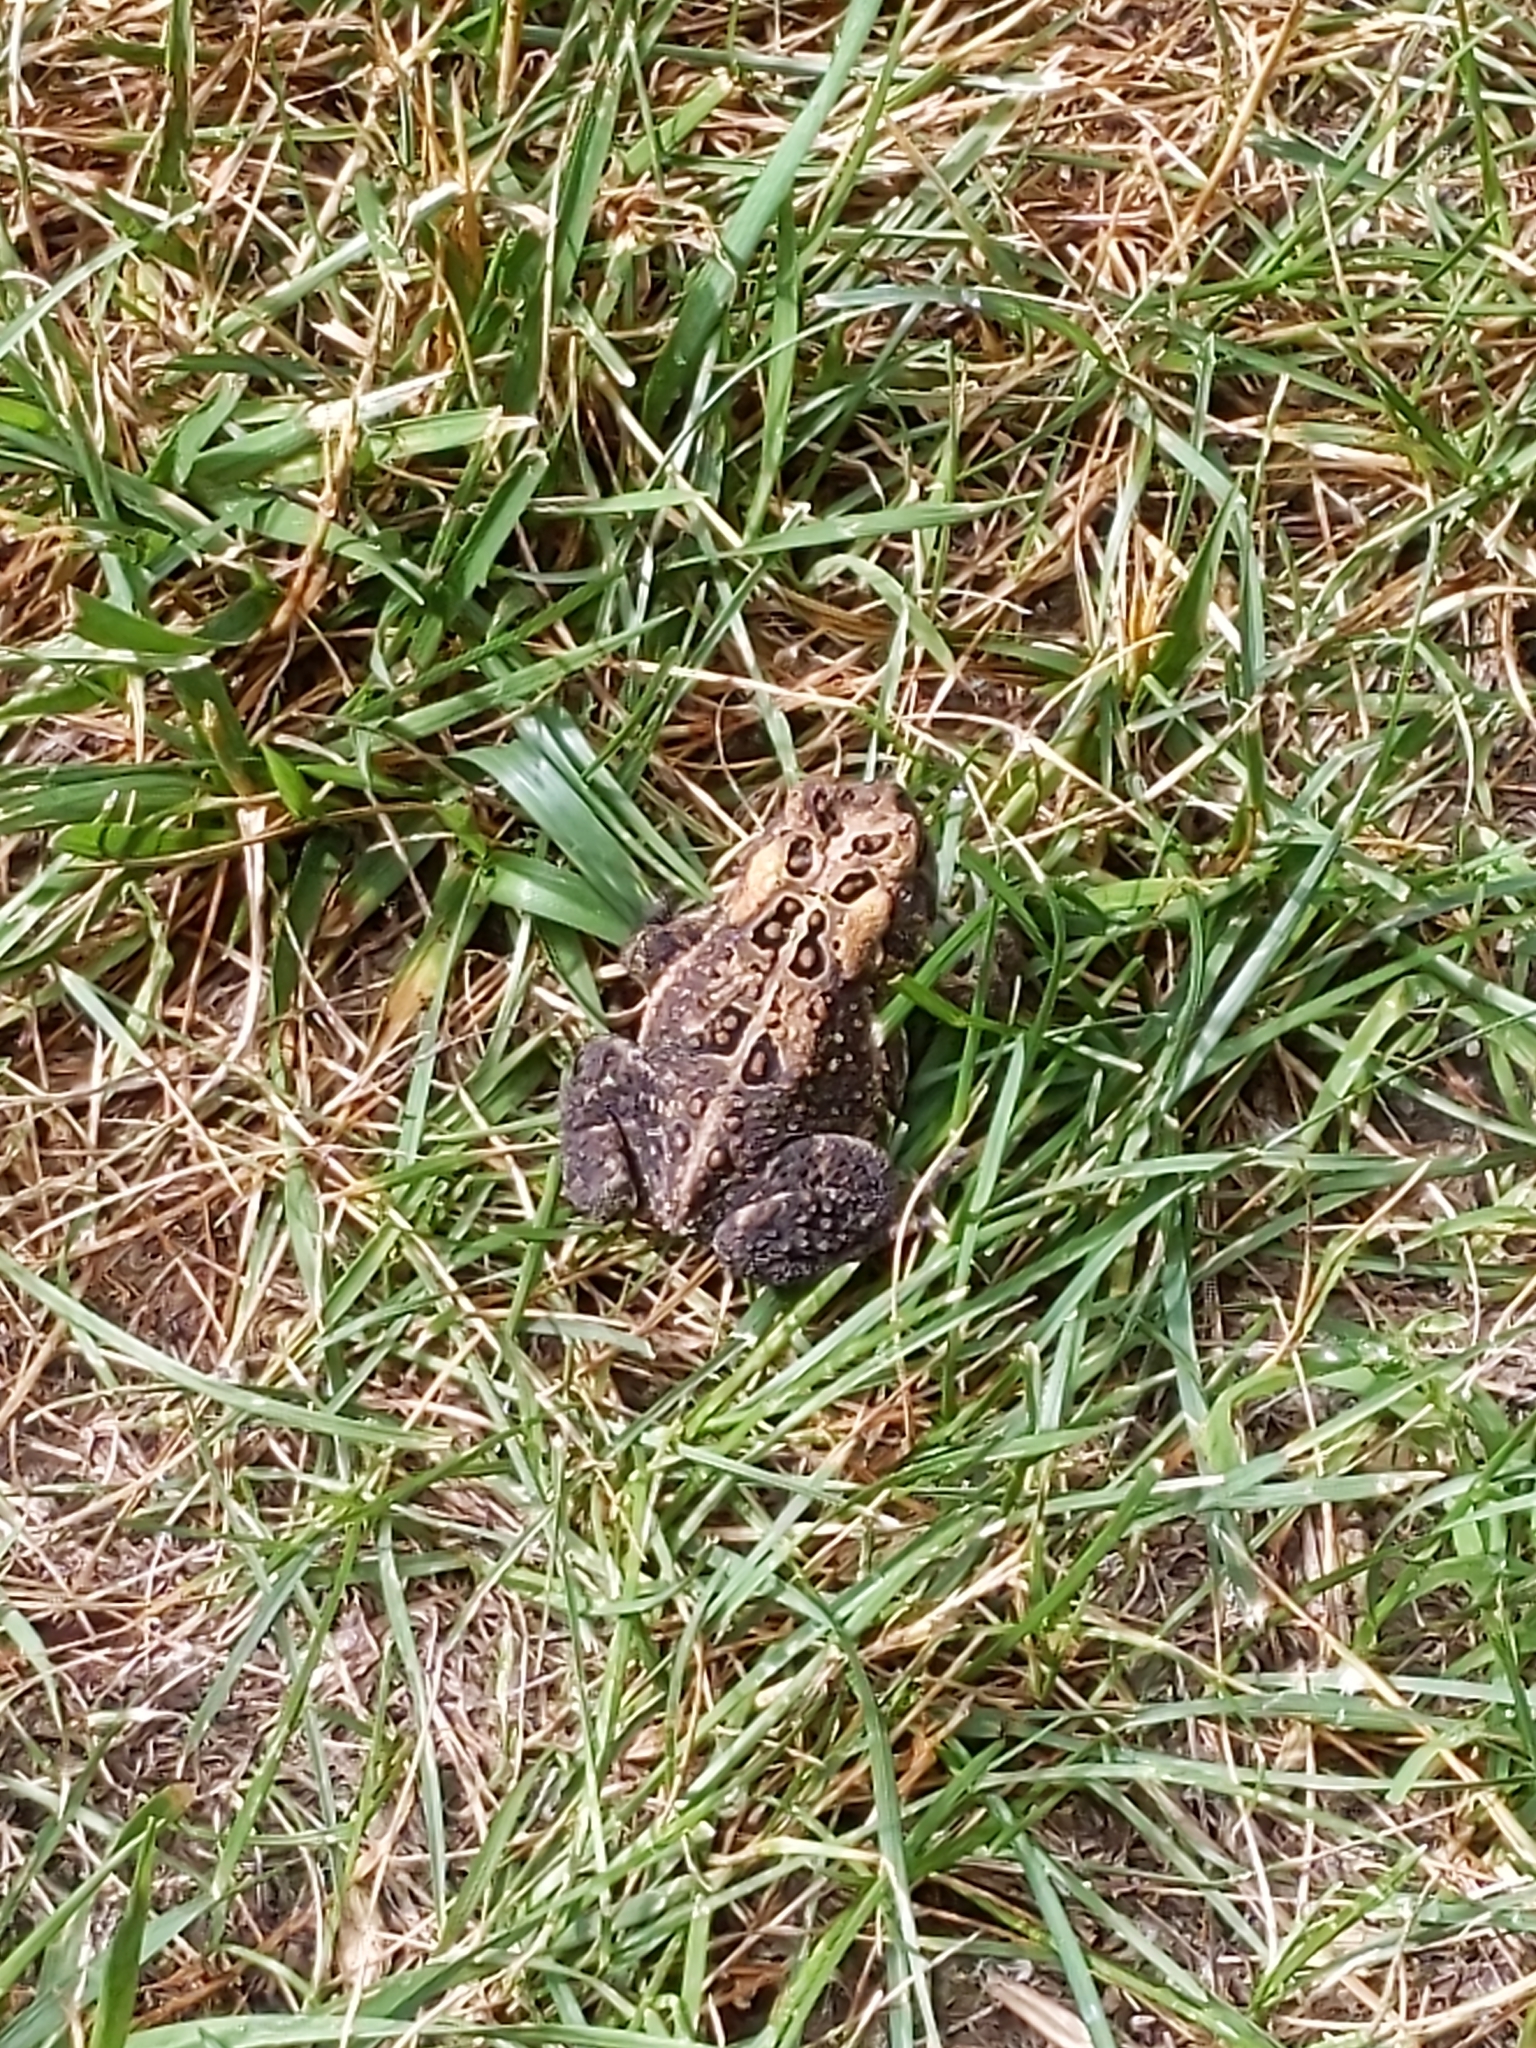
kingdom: Animalia
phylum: Chordata
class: Amphibia
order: Anura
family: Bufonidae
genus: Anaxyrus
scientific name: Anaxyrus americanus
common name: American toad
